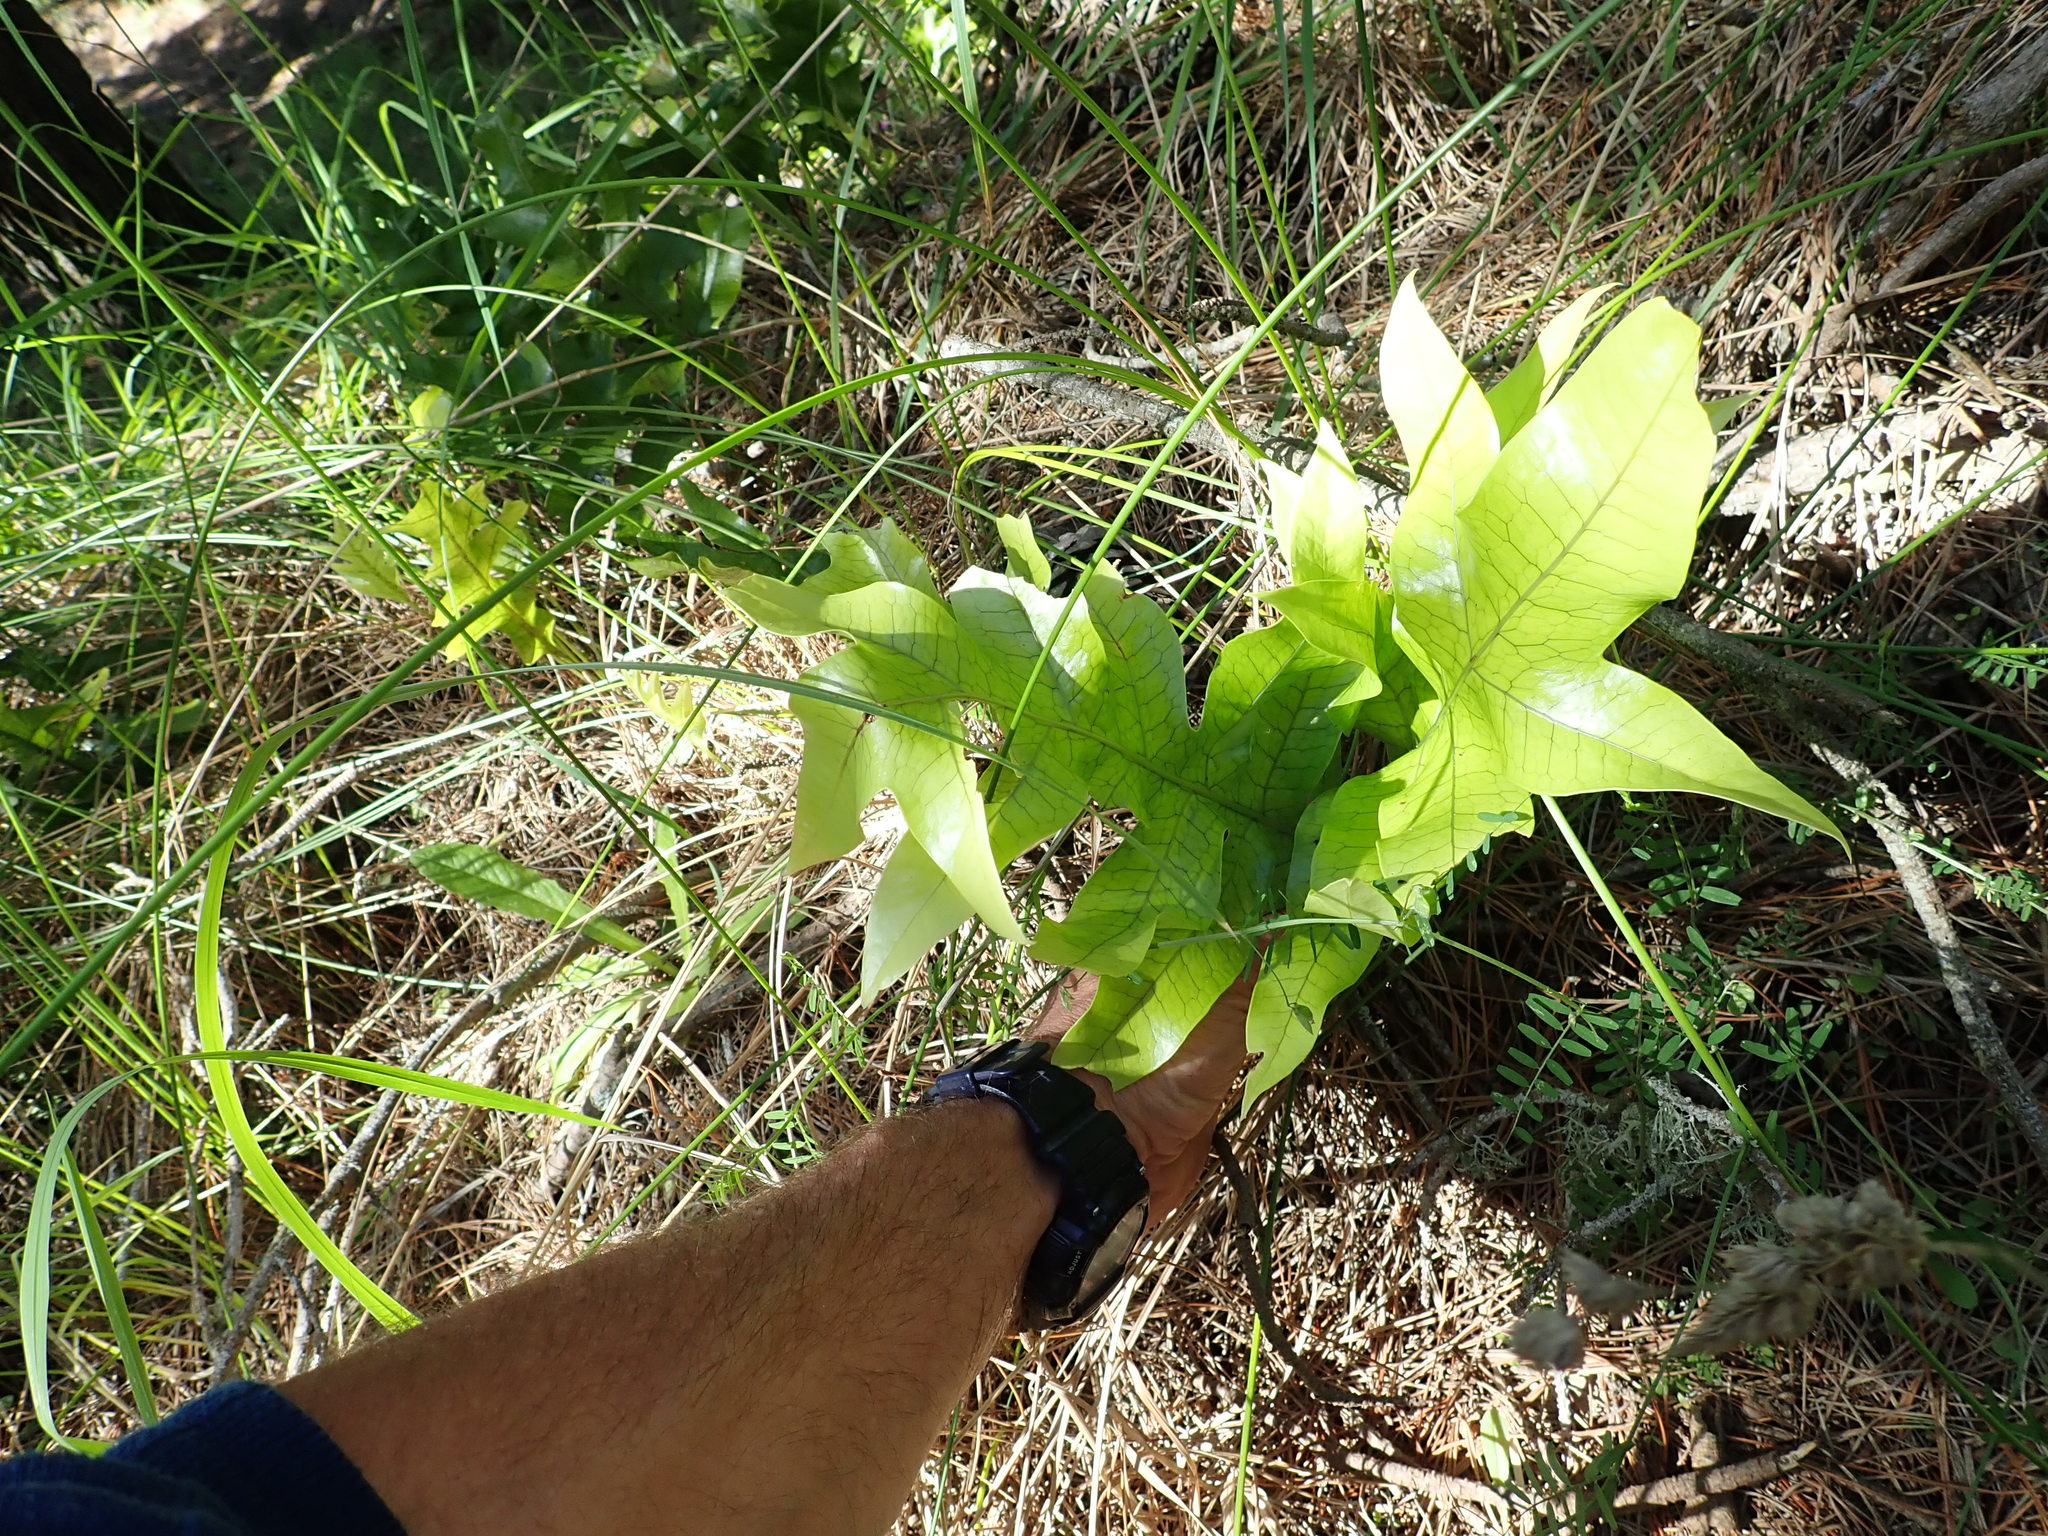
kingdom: Plantae
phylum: Tracheophyta
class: Polypodiopsida
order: Polypodiales
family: Polypodiaceae
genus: Lecanopteris
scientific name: Lecanopteris pustulata
